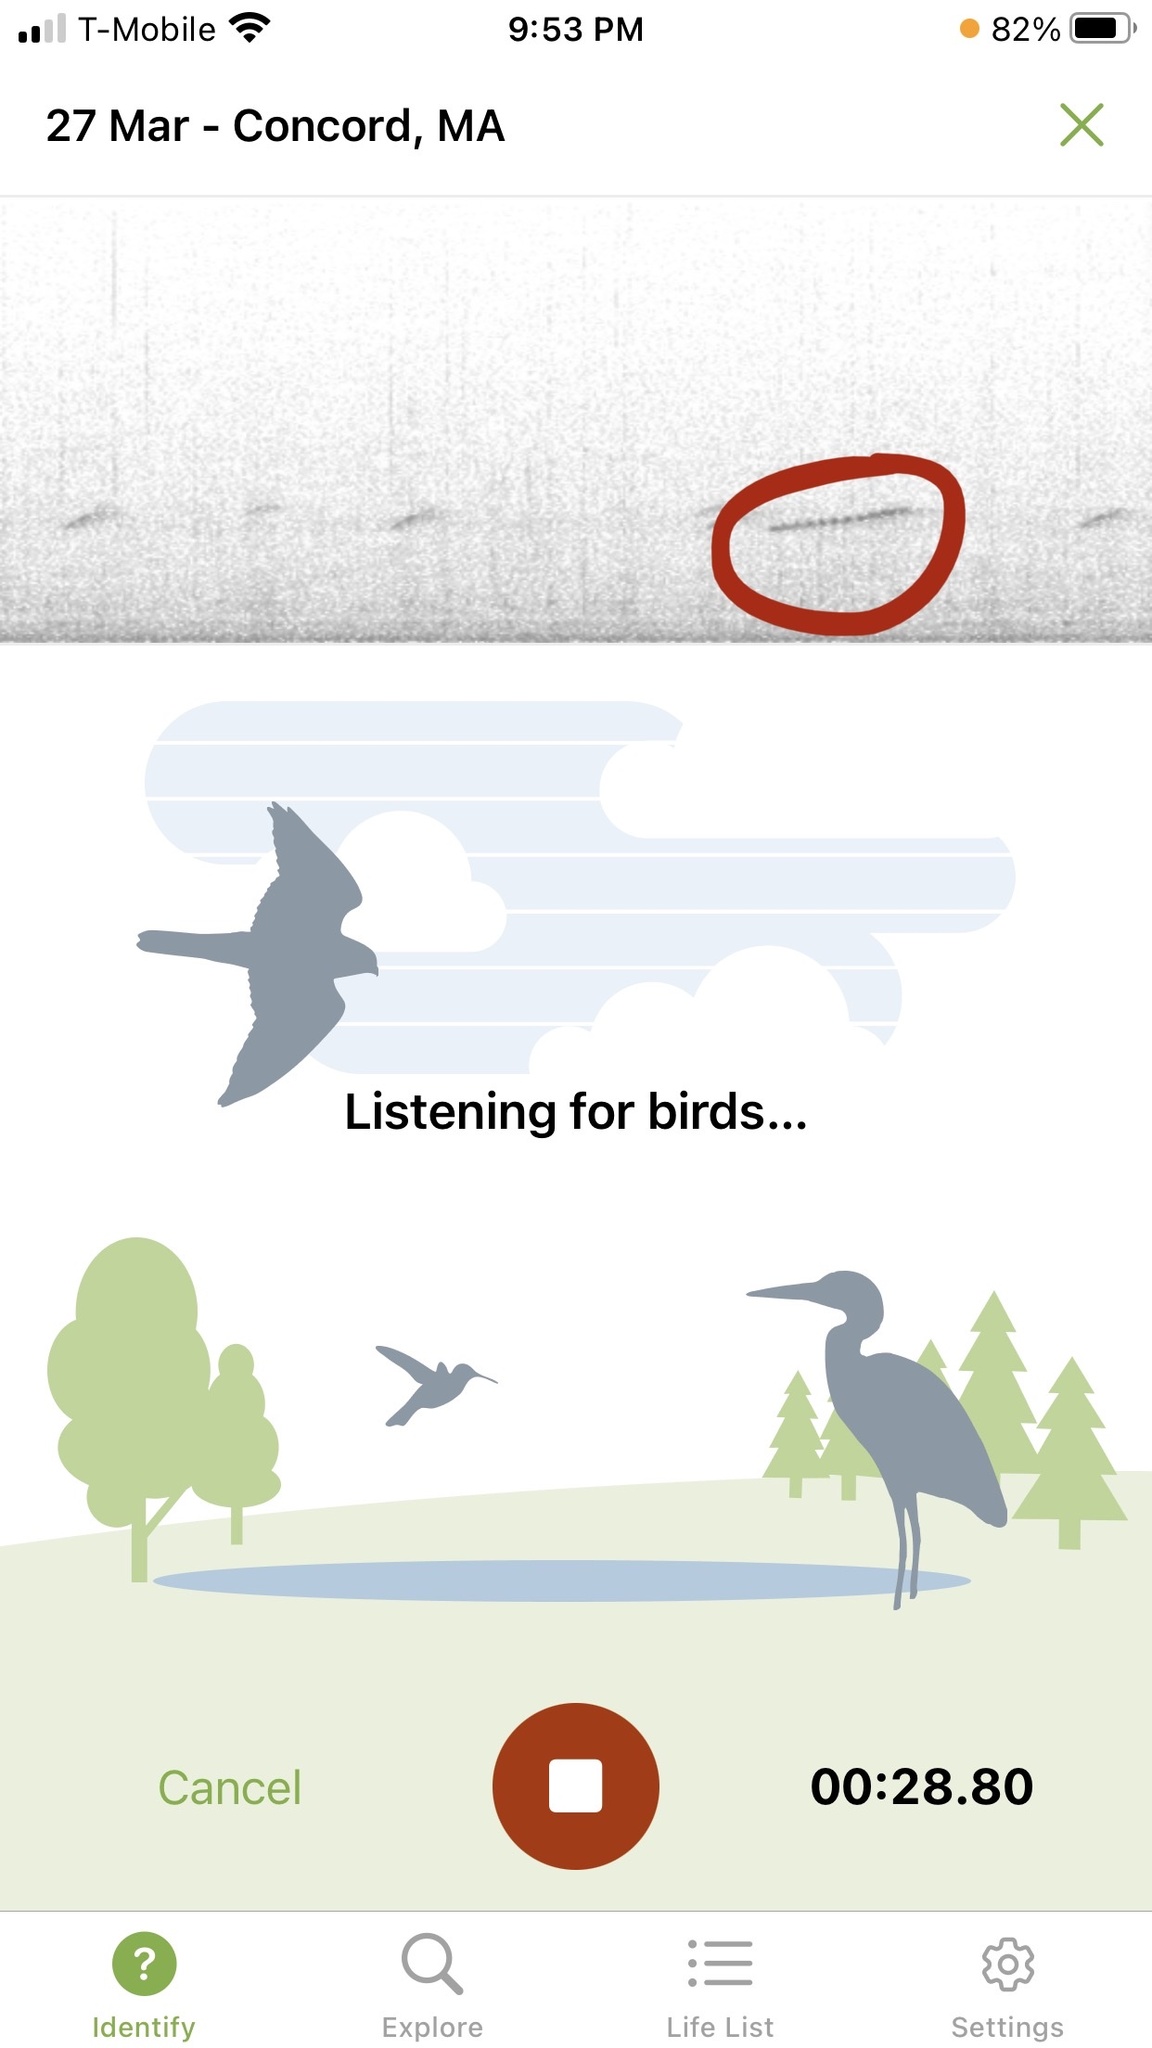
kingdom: Animalia
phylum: Chordata
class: Amphibia
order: Anura
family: Hylidae
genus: Pseudacris
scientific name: Pseudacris crucifer
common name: Spring peeper
